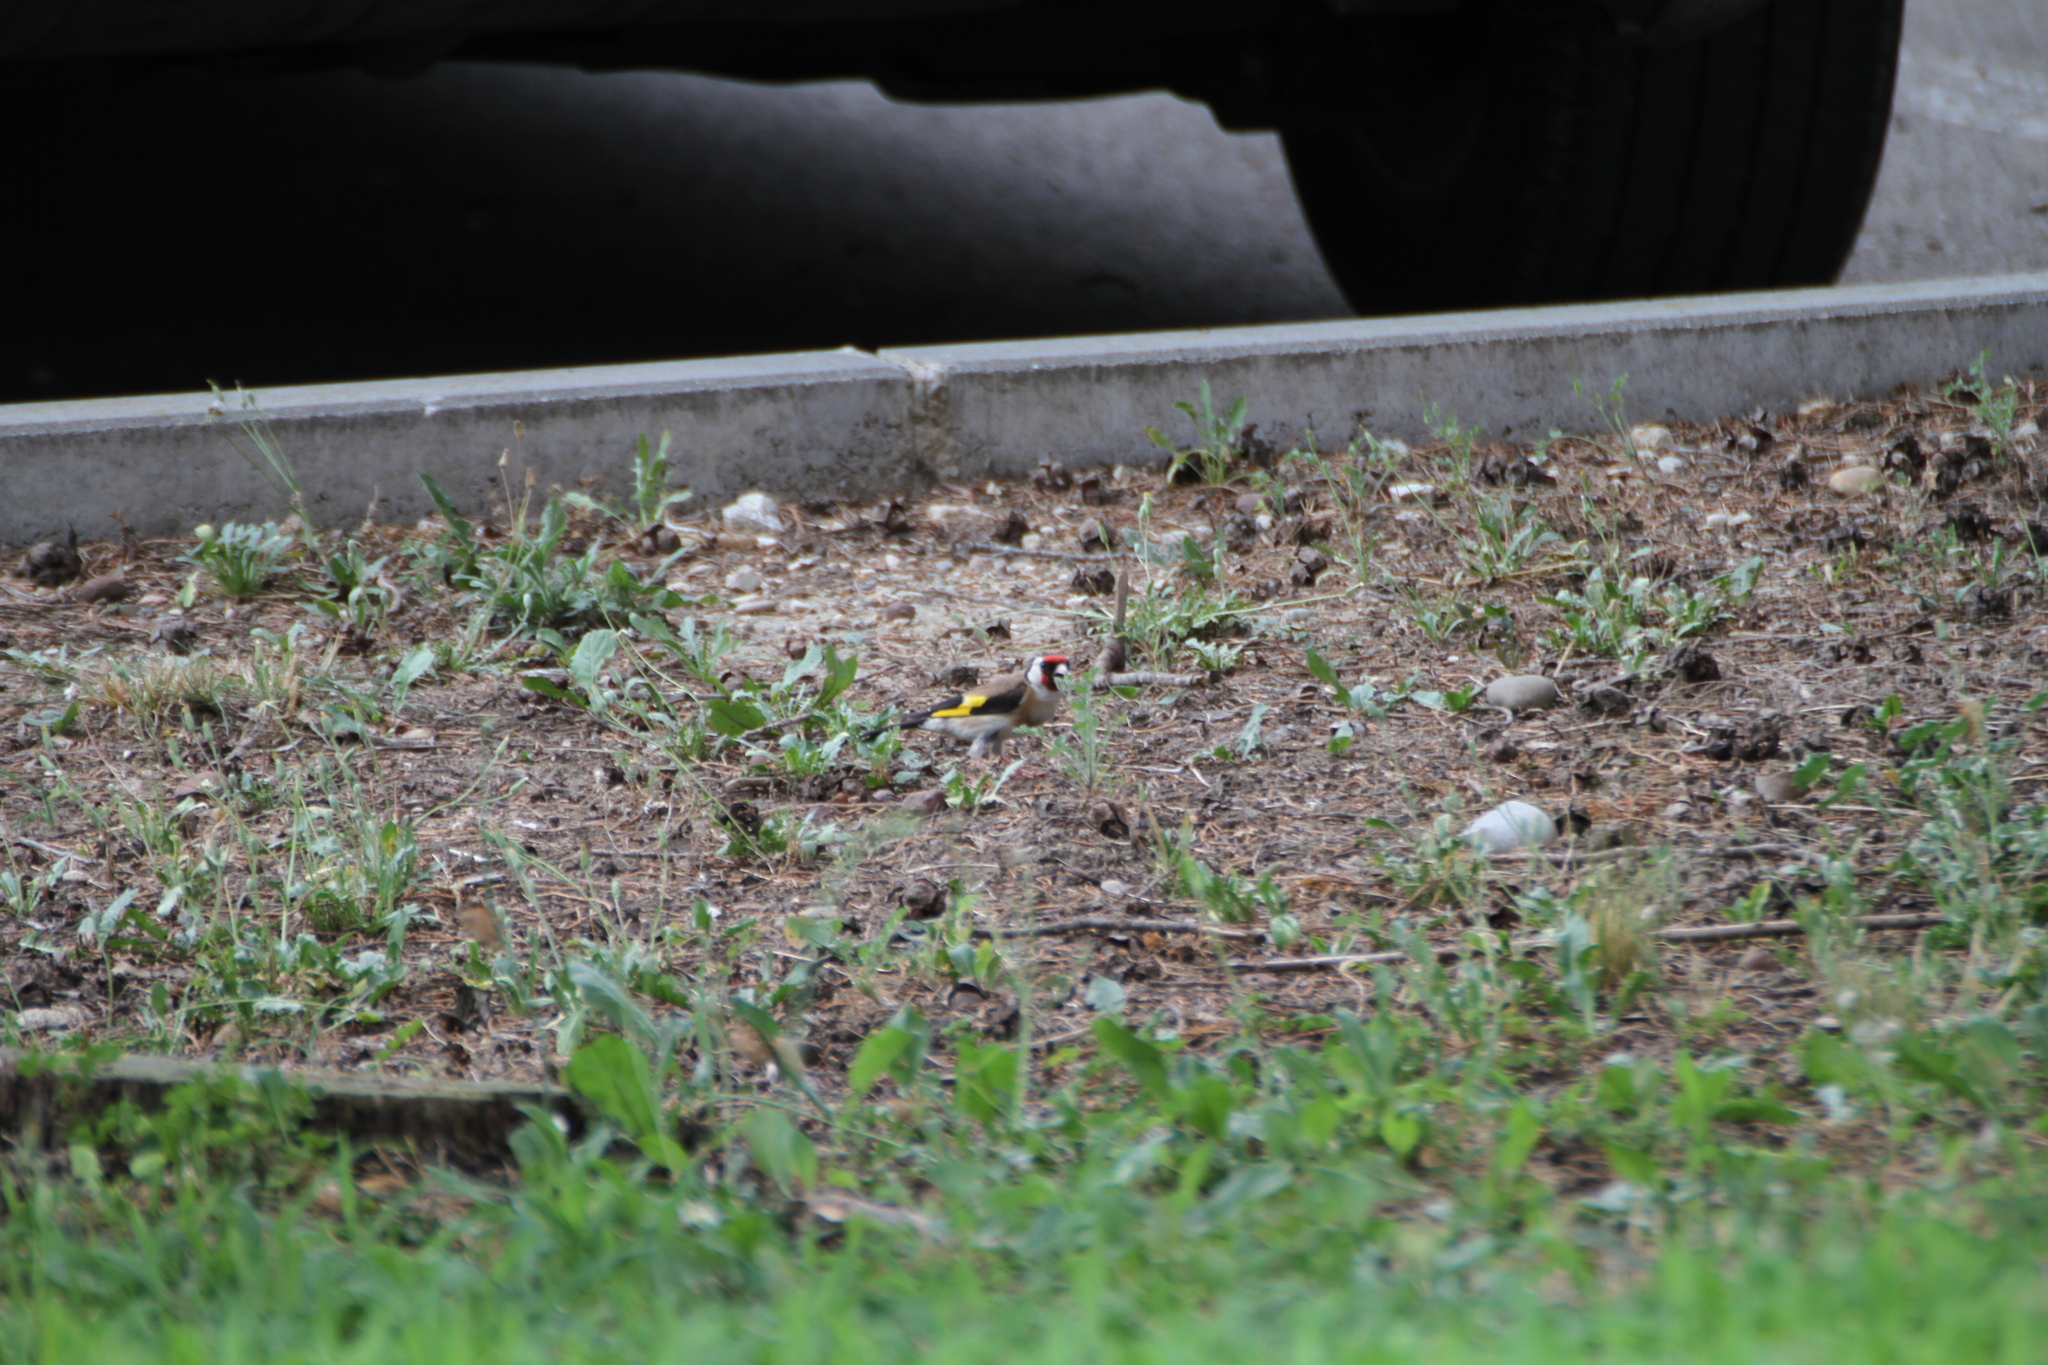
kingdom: Animalia
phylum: Chordata
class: Aves
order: Passeriformes
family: Fringillidae
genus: Carduelis
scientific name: Carduelis carduelis
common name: European goldfinch
